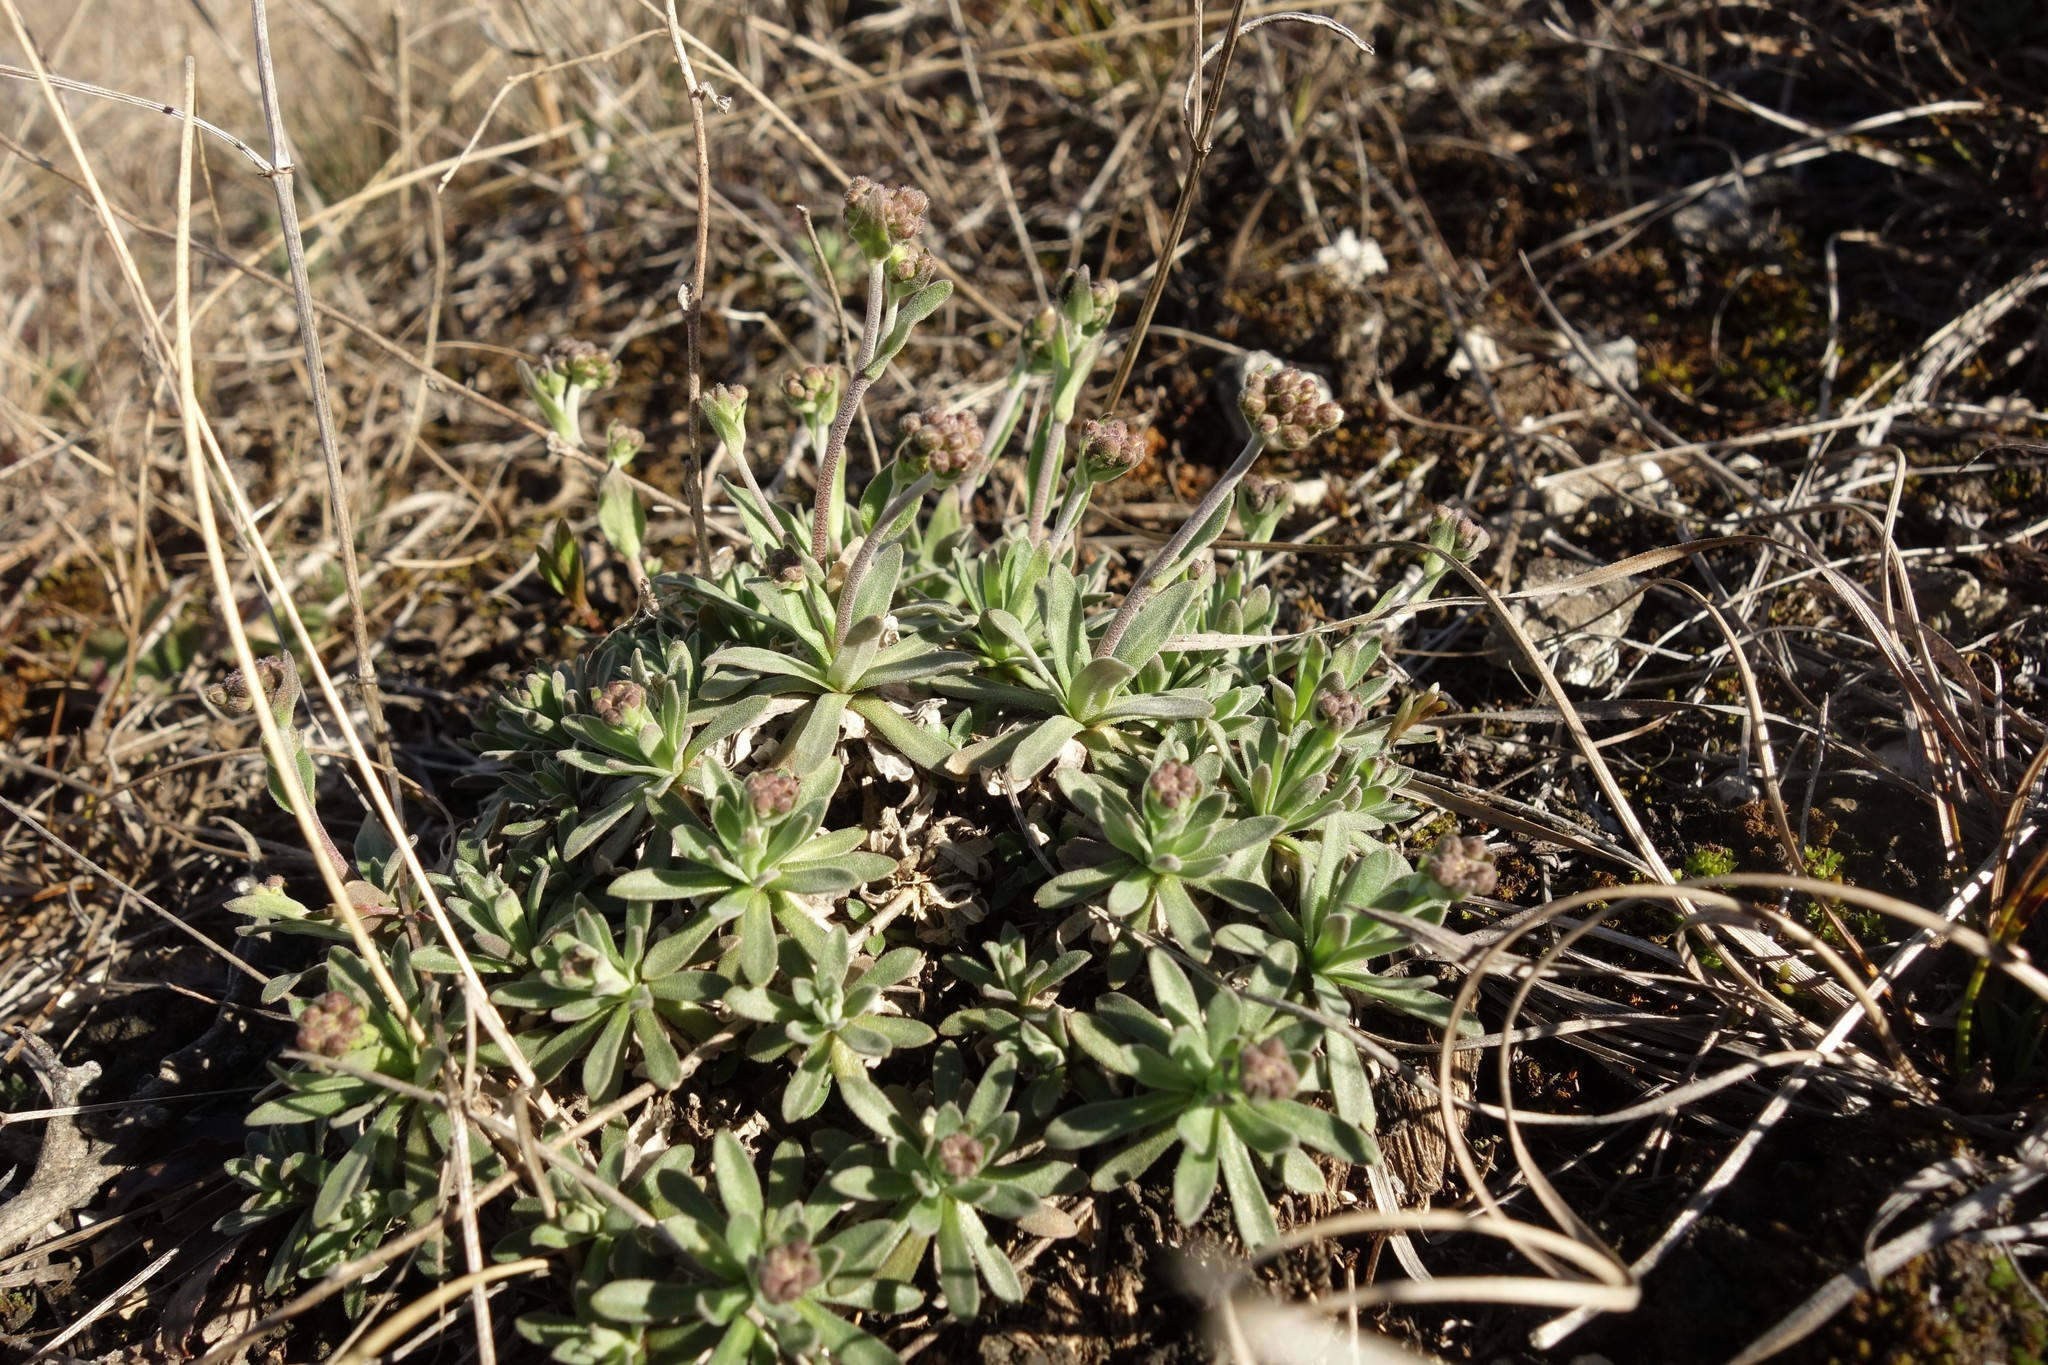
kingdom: Plantae
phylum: Tracheophyta
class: Magnoliopsida
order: Brassicales
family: Brassicaceae
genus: Draba
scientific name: Draba hyperborea
